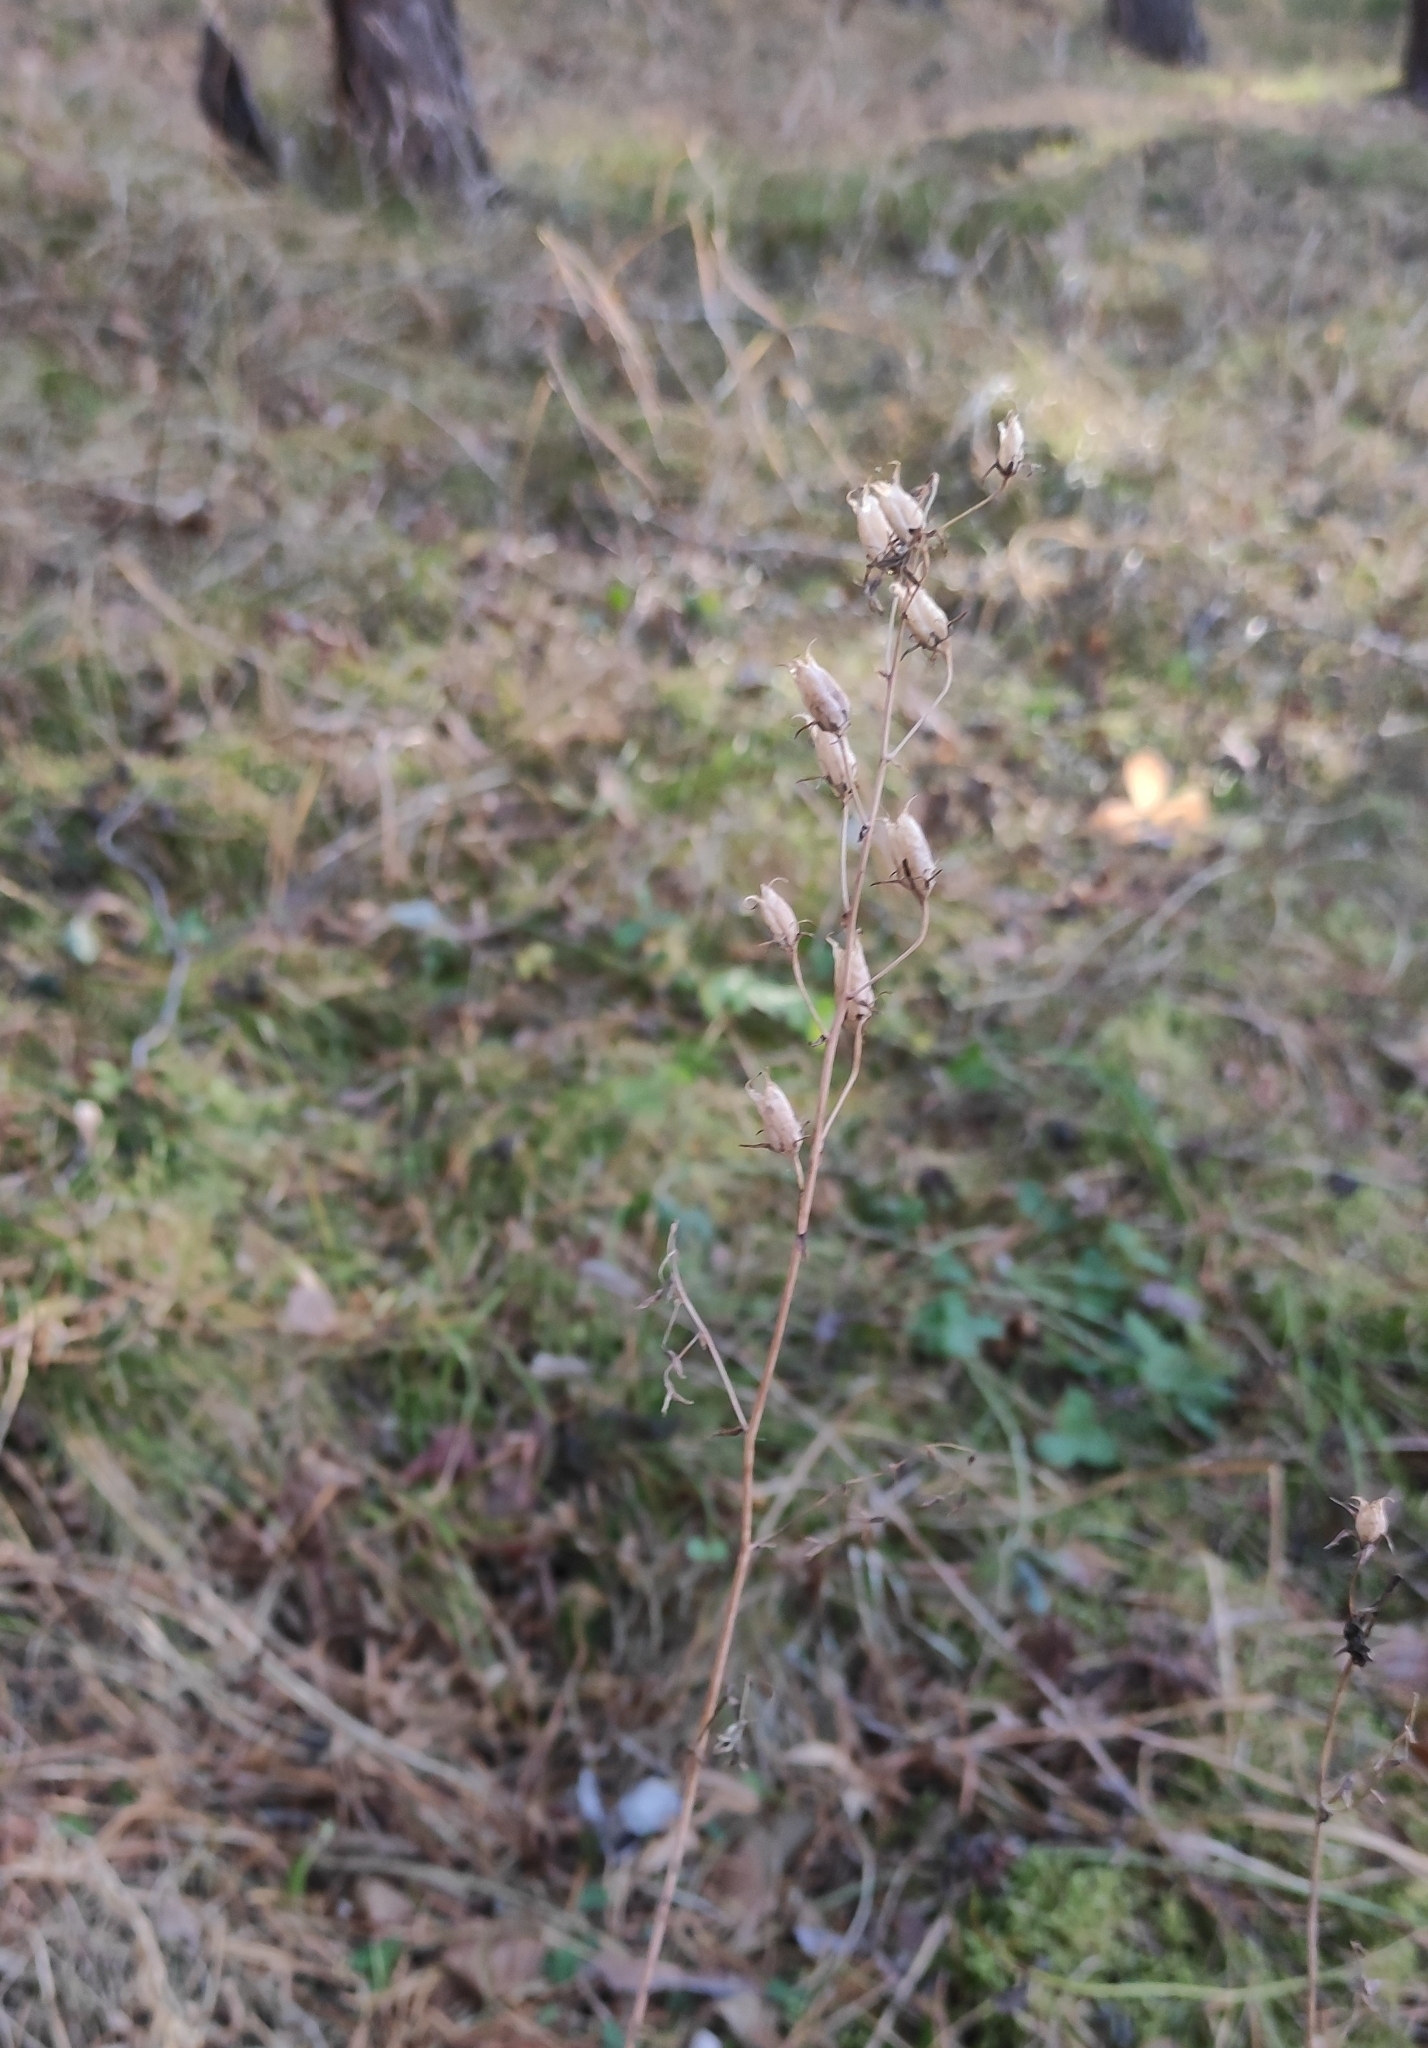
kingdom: Plantae
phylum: Tracheophyta
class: Liliopsida
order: Liliales
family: Melanthiaceae
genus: Anticlea
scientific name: Anticlea sibirica
